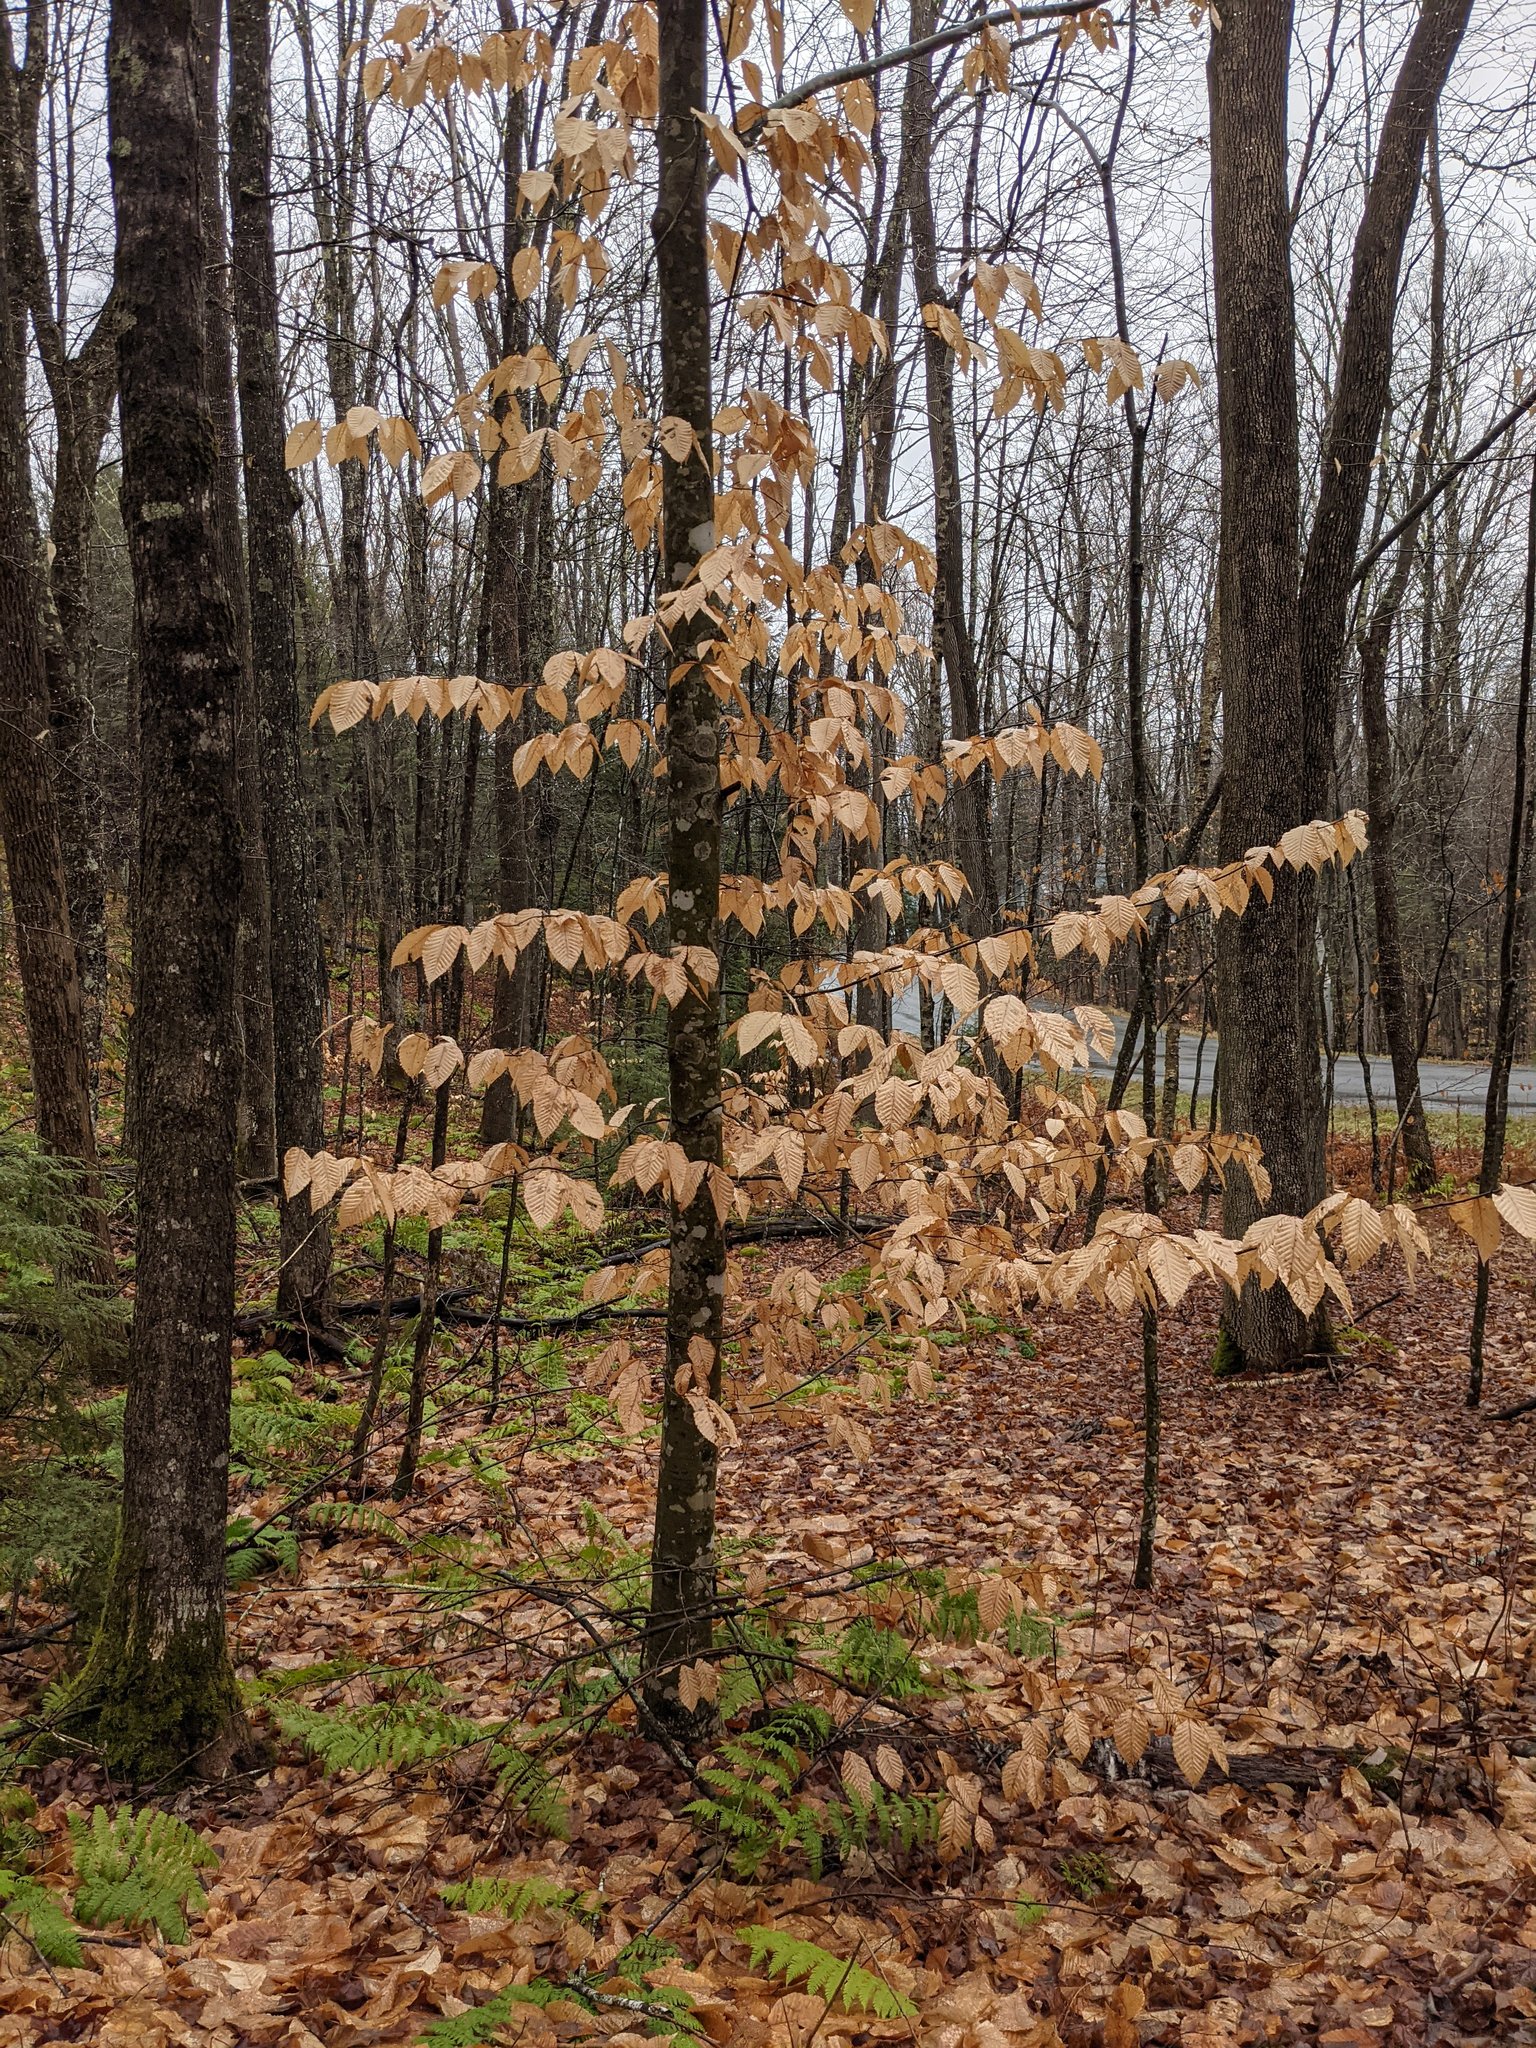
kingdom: Plantae
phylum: Tracheophyta
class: Magnoliopsida
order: Fagales
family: Fagaceae
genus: Fagus
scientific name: Fagus grandifolia
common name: American beech
